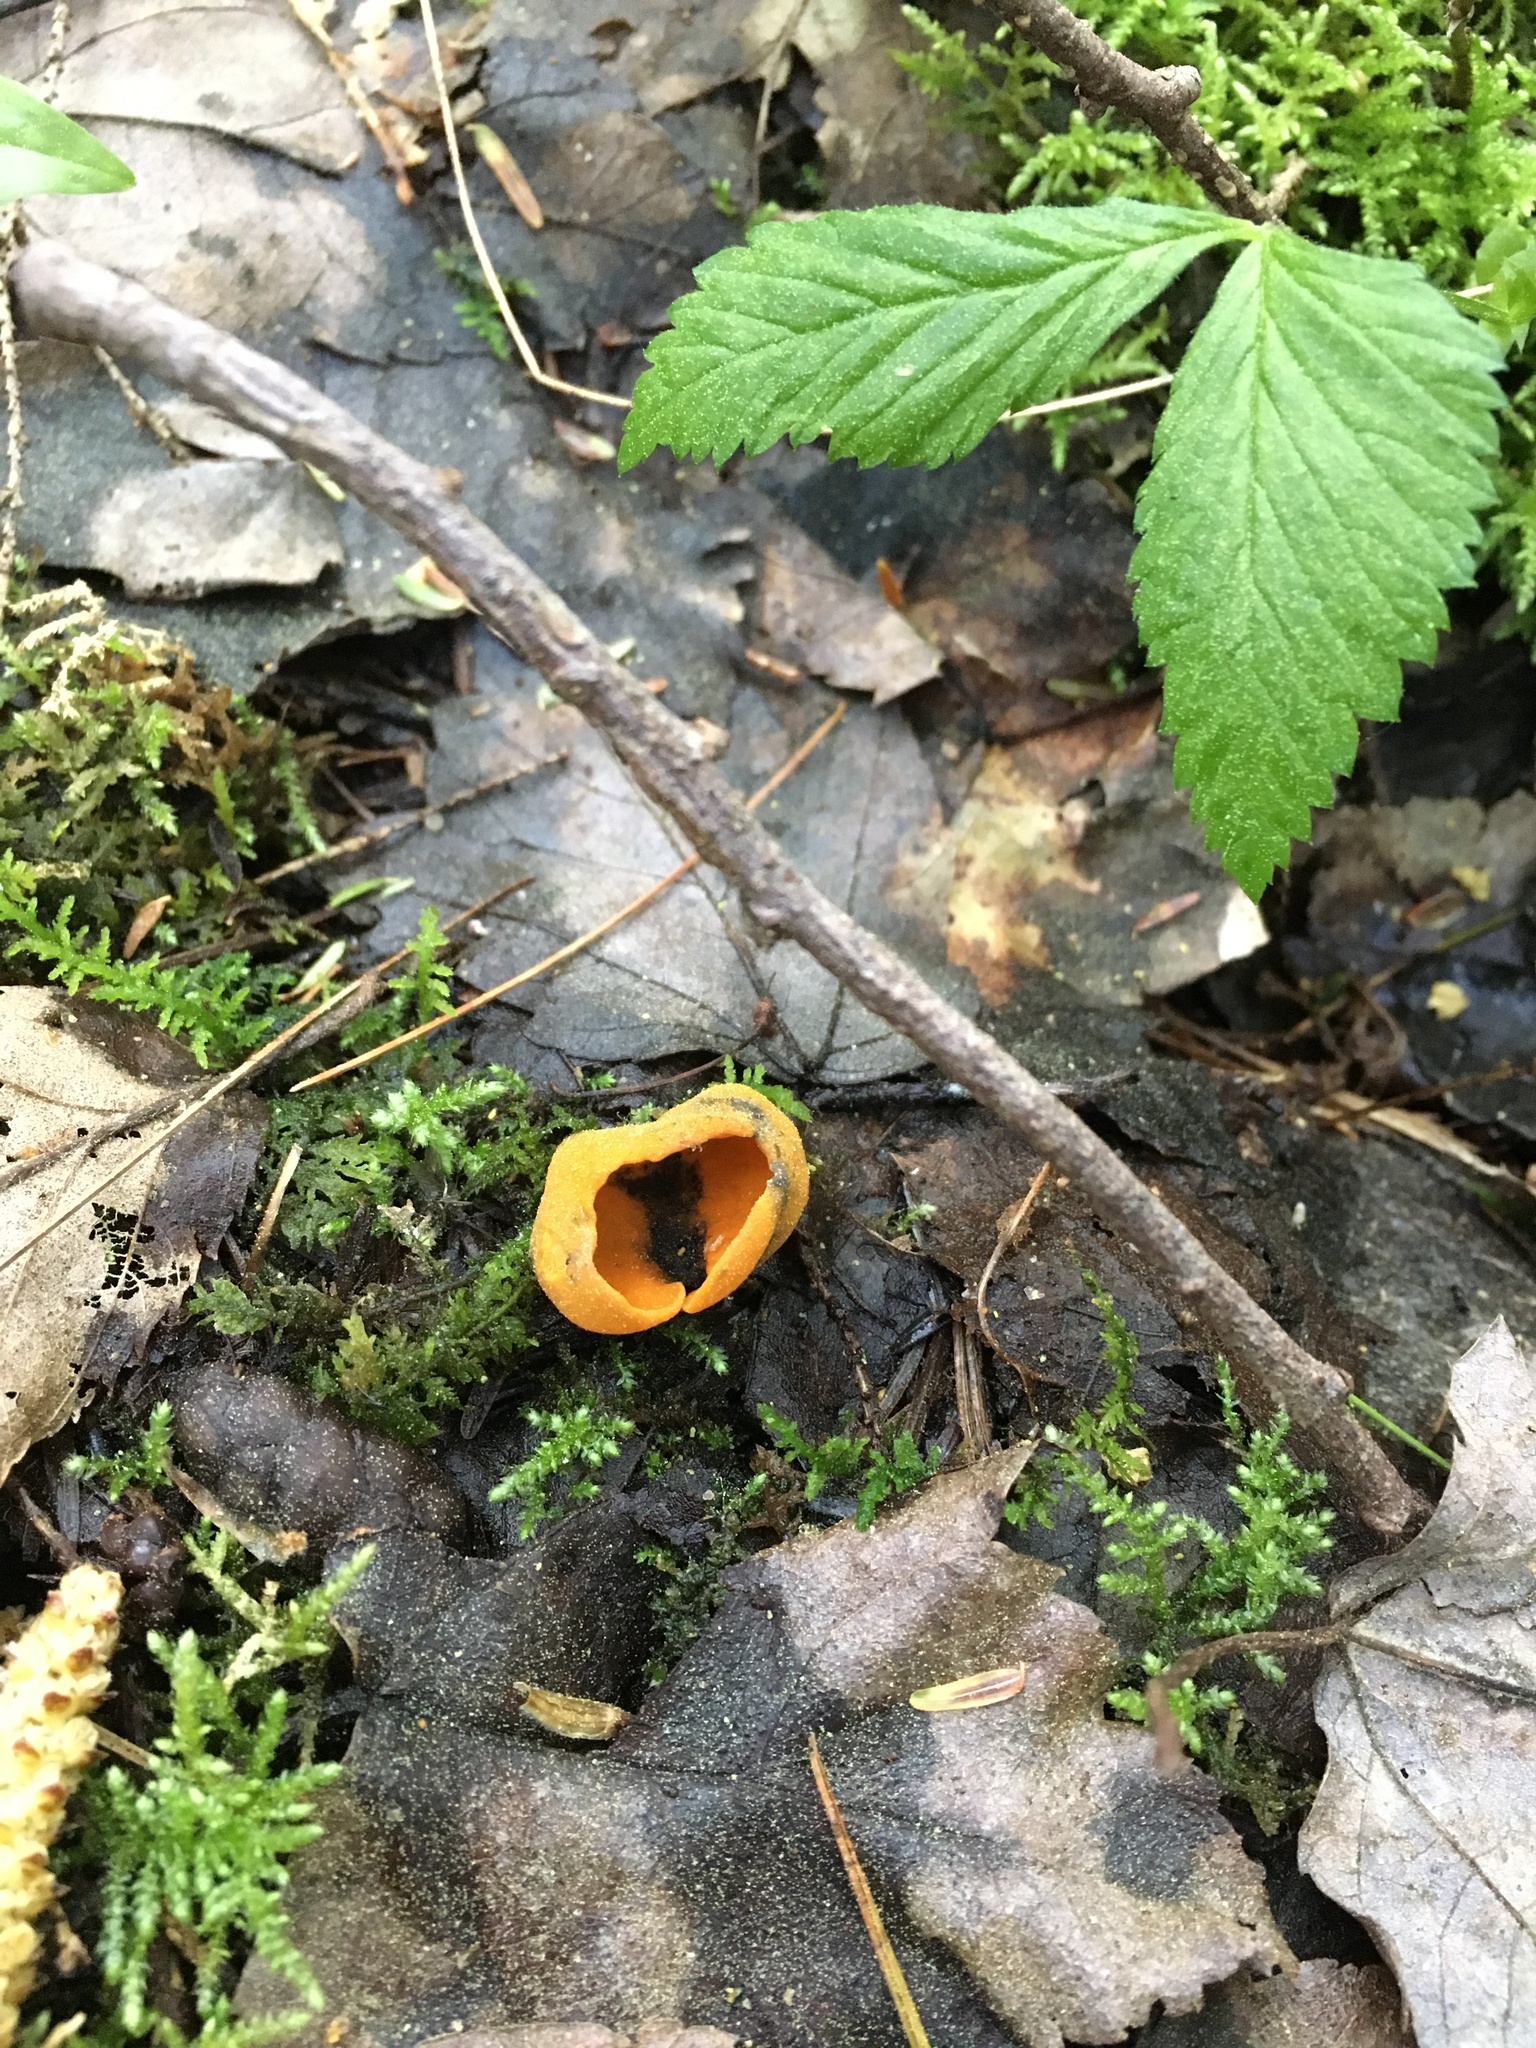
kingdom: Fungi
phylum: Ascomycota
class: Pezizomycetes
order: Pezizales
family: Caloscyphaceae
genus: Caloscypha
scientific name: Caloscypha fulgens
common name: Golden cup
